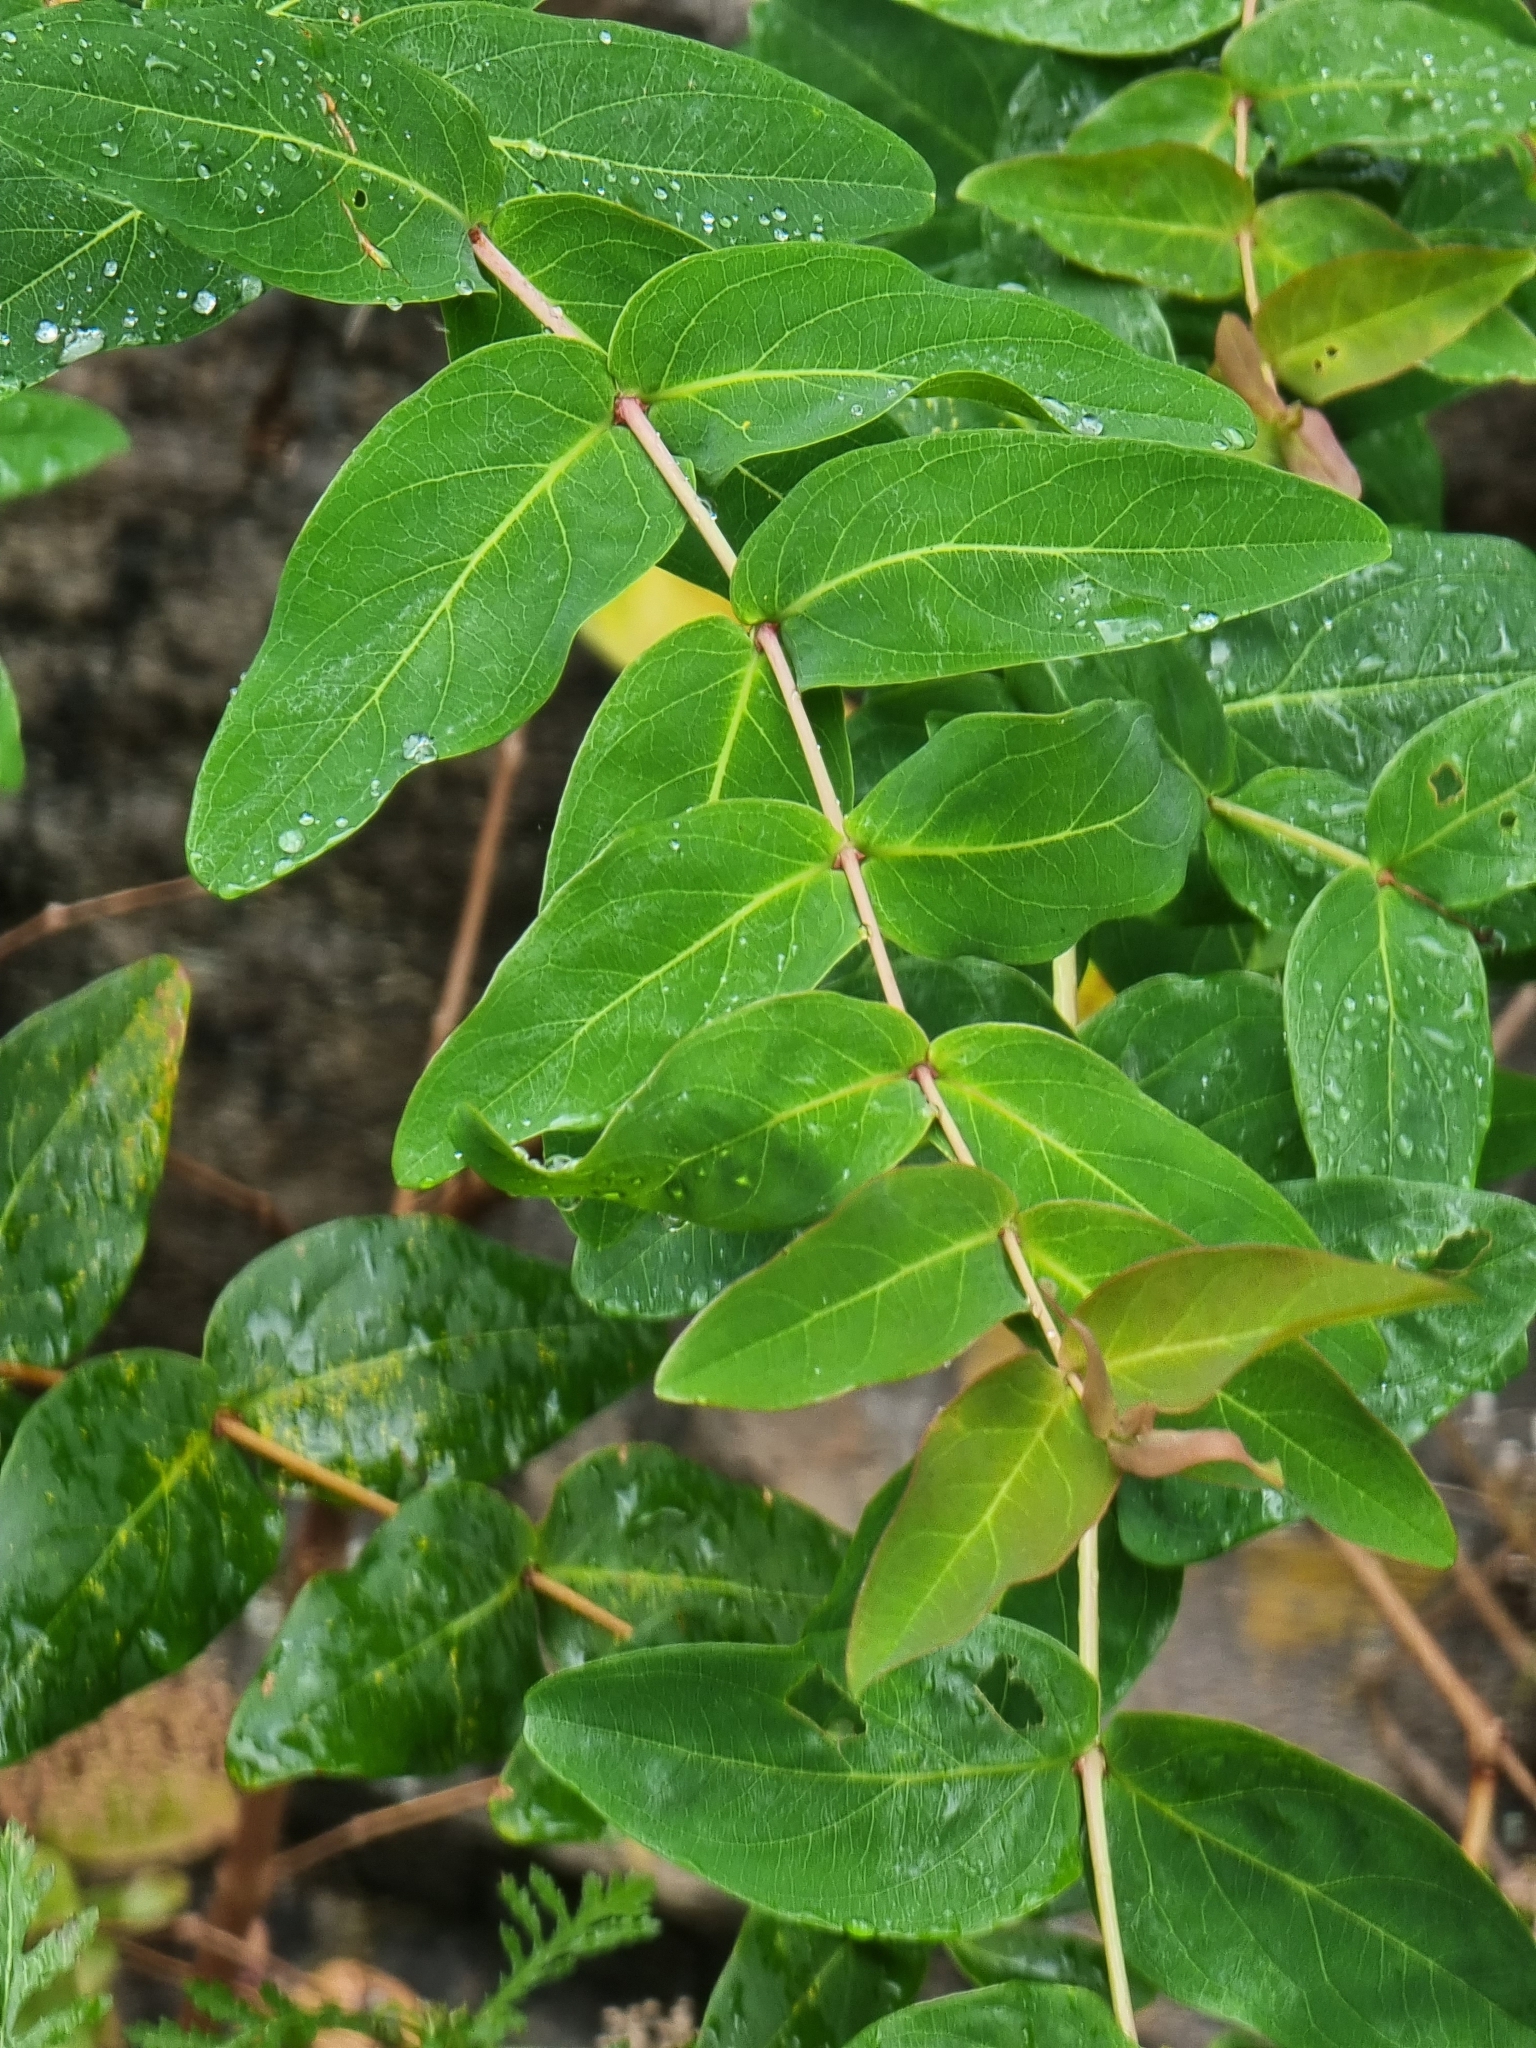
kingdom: Plantae
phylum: Tracheophyta
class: Magnoliopsida
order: Malpighiales
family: Hypericaceae
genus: Hypericum
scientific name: Hypericum grandifolium
